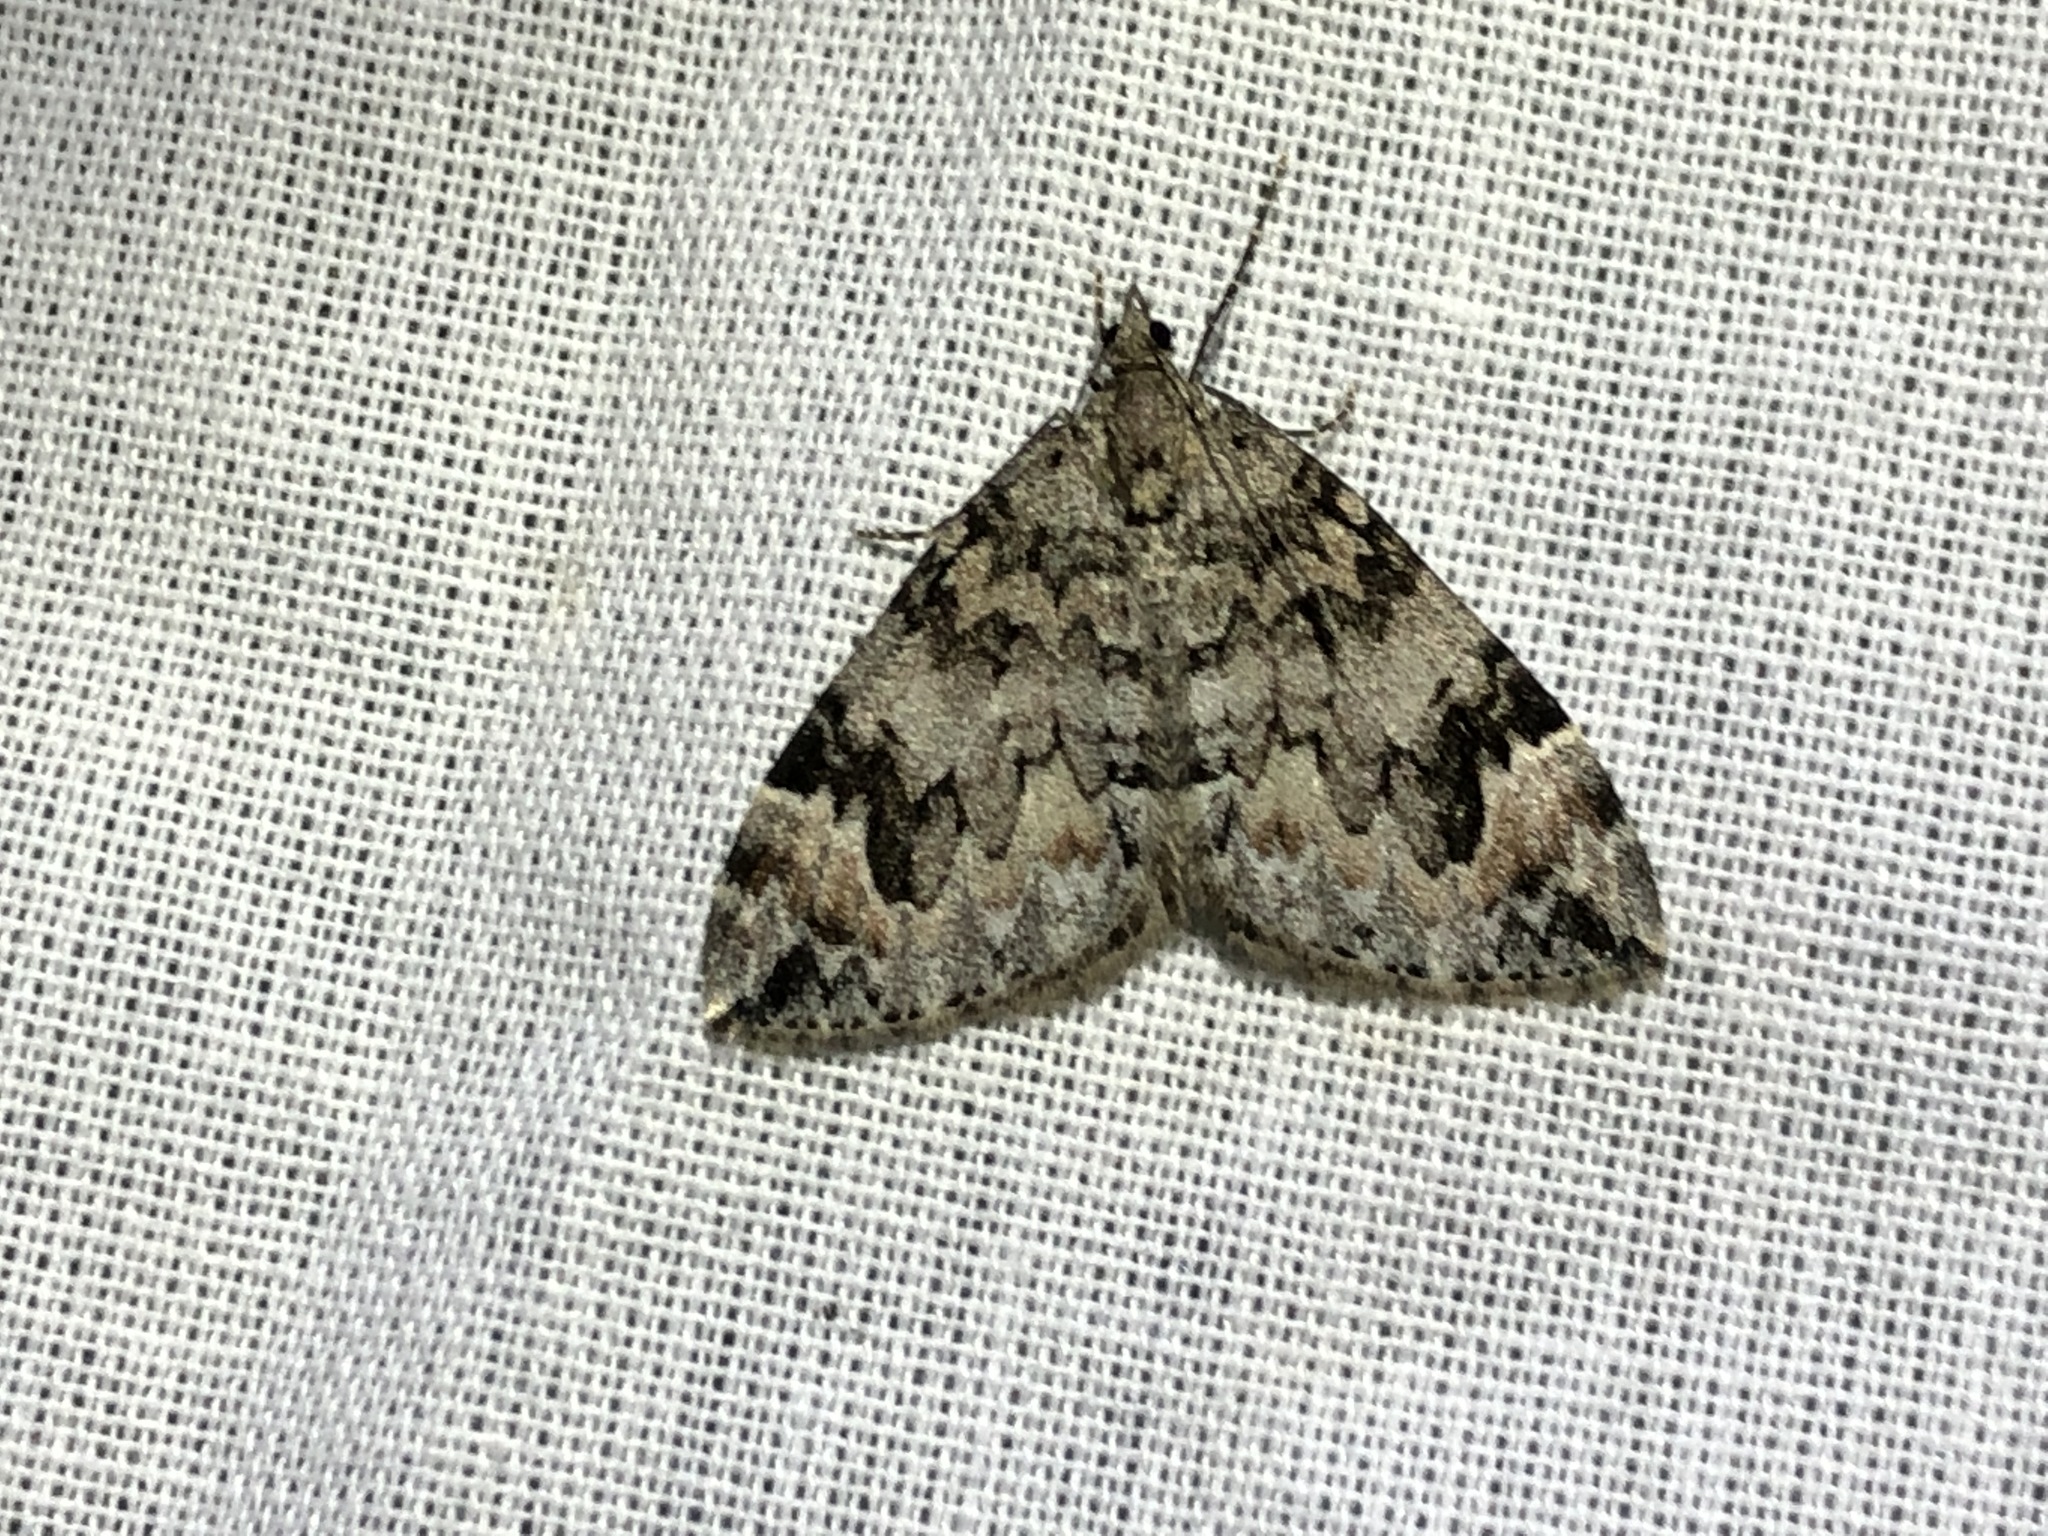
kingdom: Animalia
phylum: Arthropoda
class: Insecta
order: Lepidoptera
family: Geometridae
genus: Dysstroma
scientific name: Dysstroma citrata
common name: Dark marbled carpet
